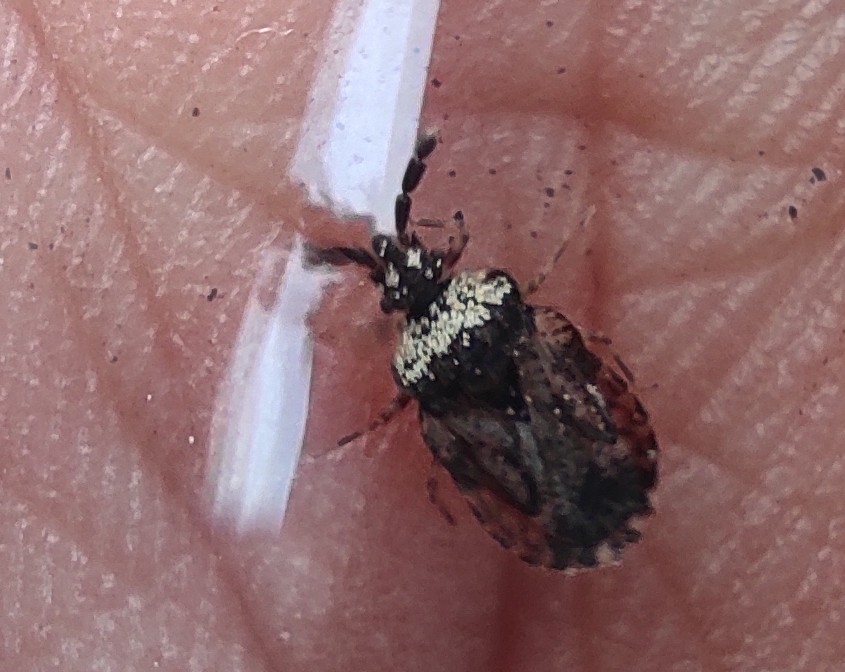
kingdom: Animalia
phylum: Arthropoda
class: Insecta
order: Hemiptera
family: Aradidae
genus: Aradus
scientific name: Aradus depressus
